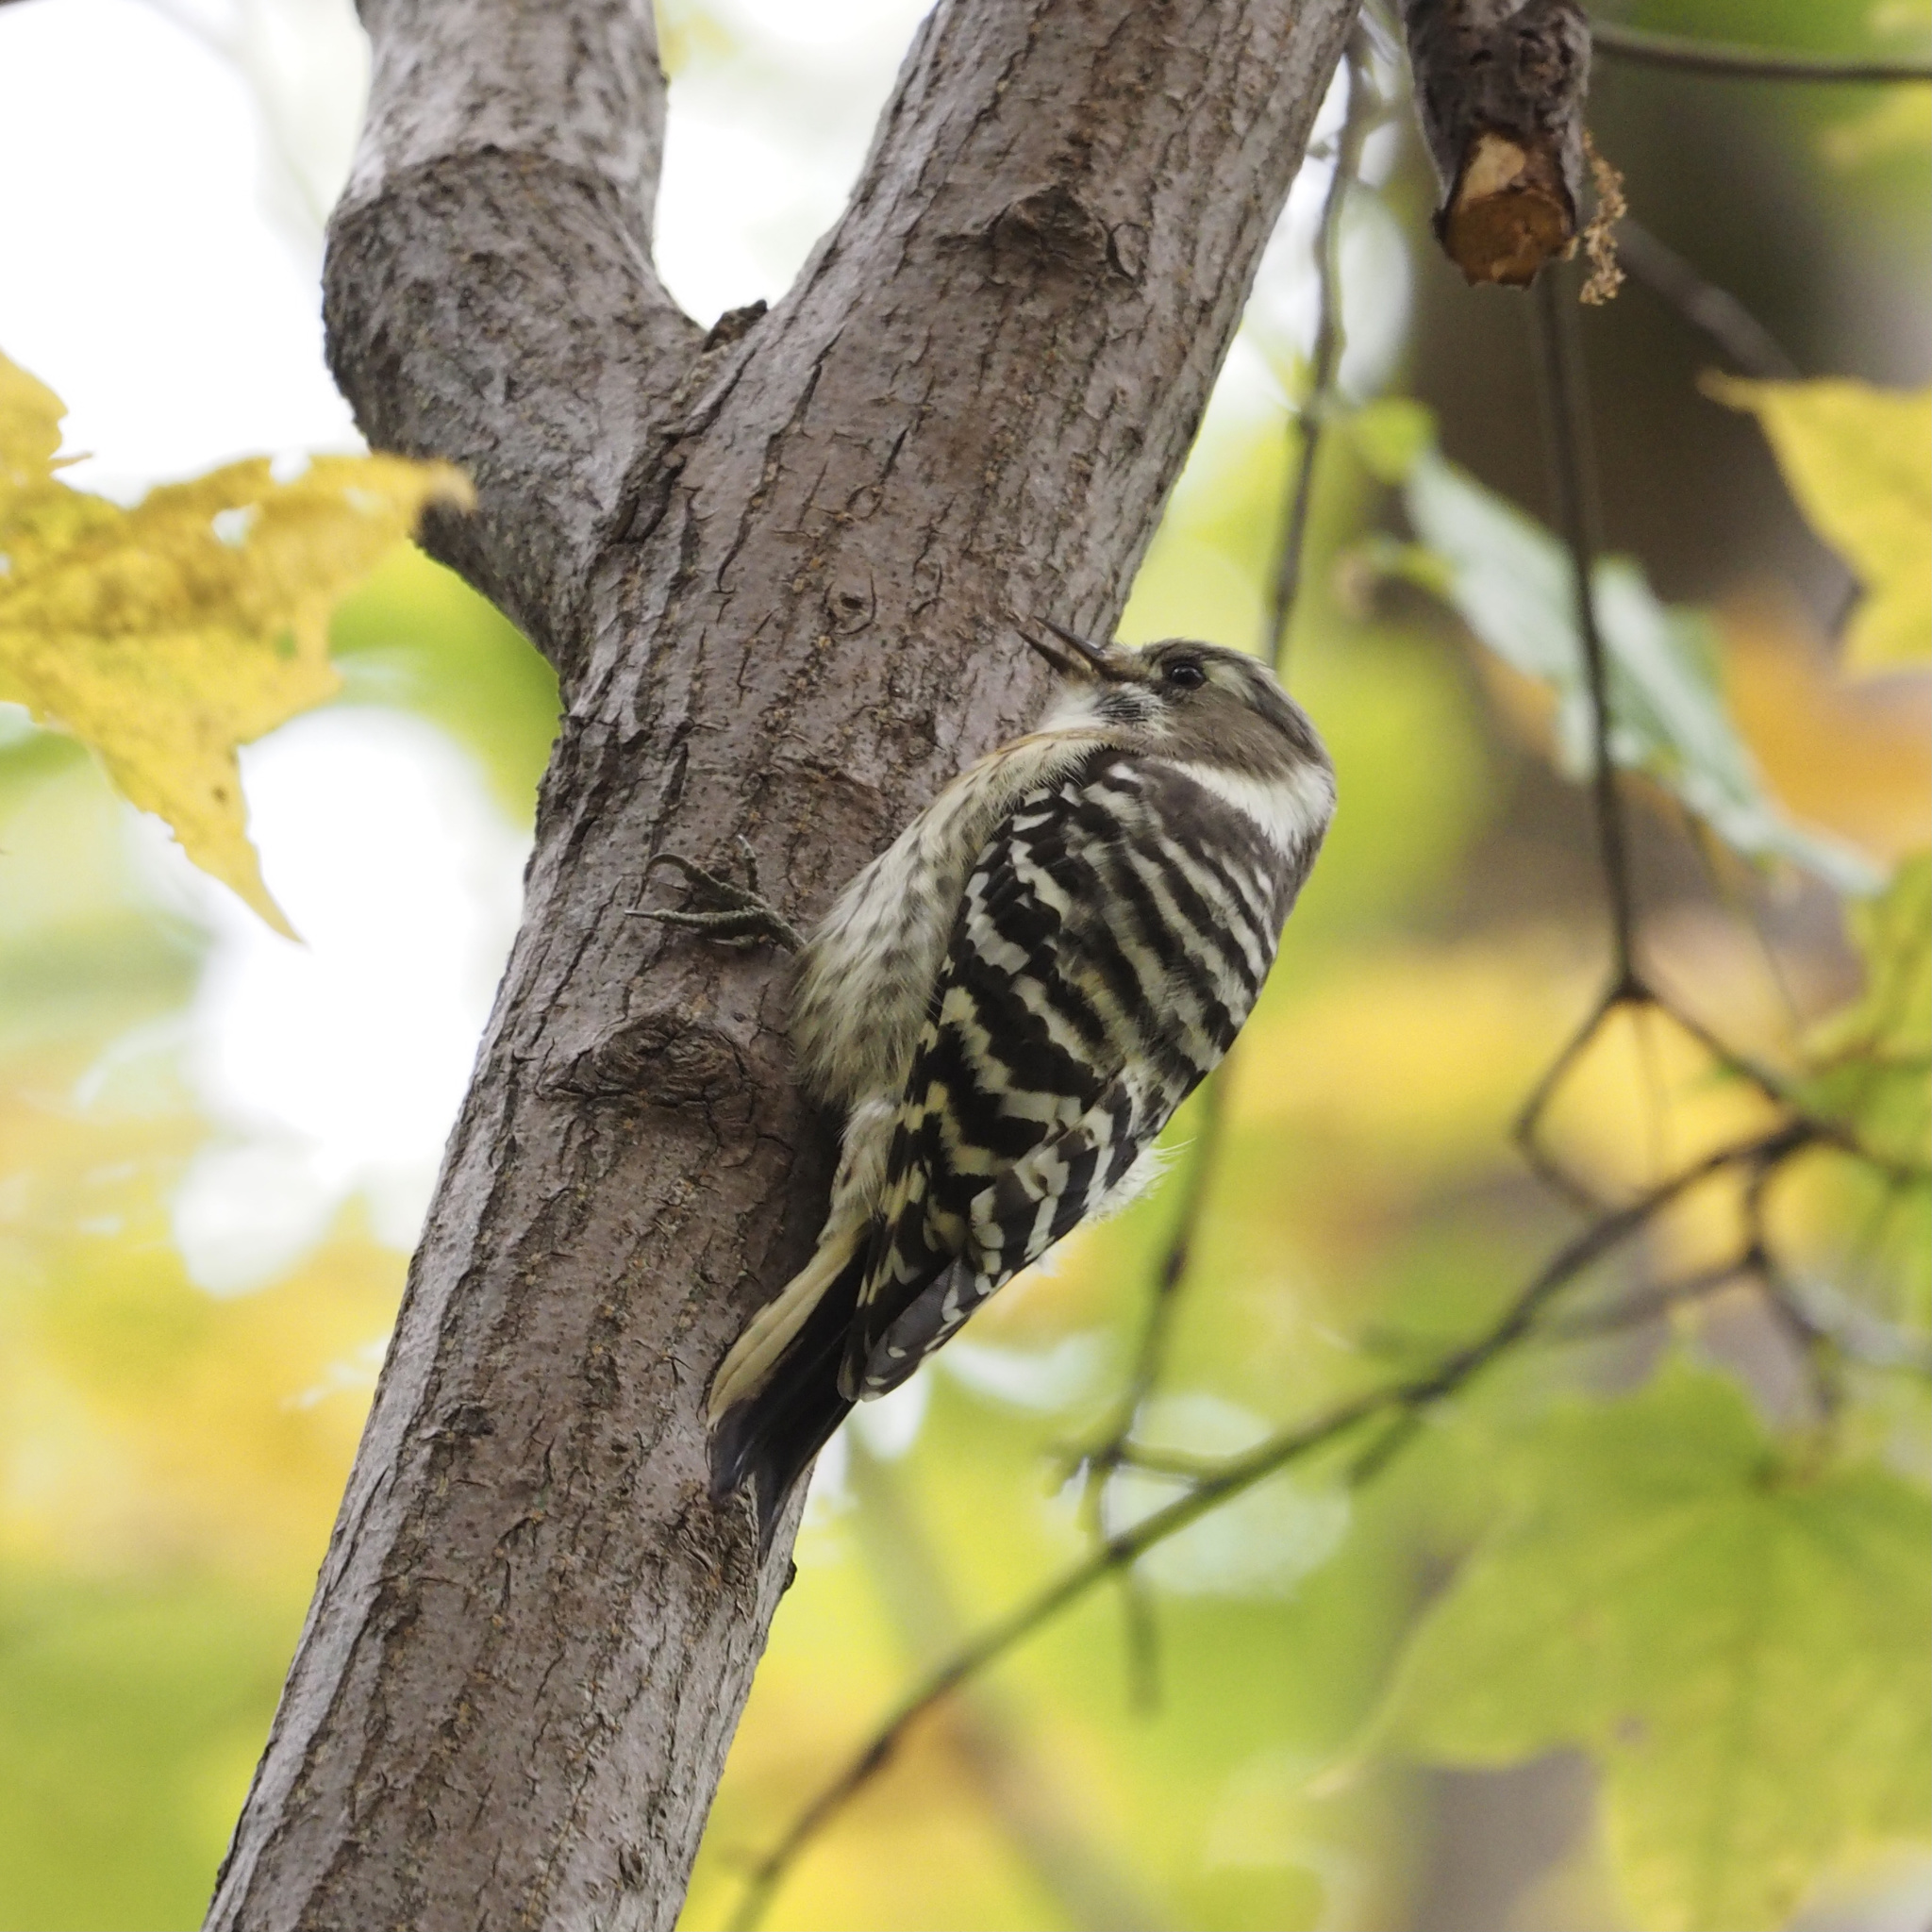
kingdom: Animalia
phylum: Chordata
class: Aves
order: Piciformes
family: Picidae
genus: Yungipicus
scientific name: Yungipicus kizuki
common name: Japanese pygmy woodpecker
